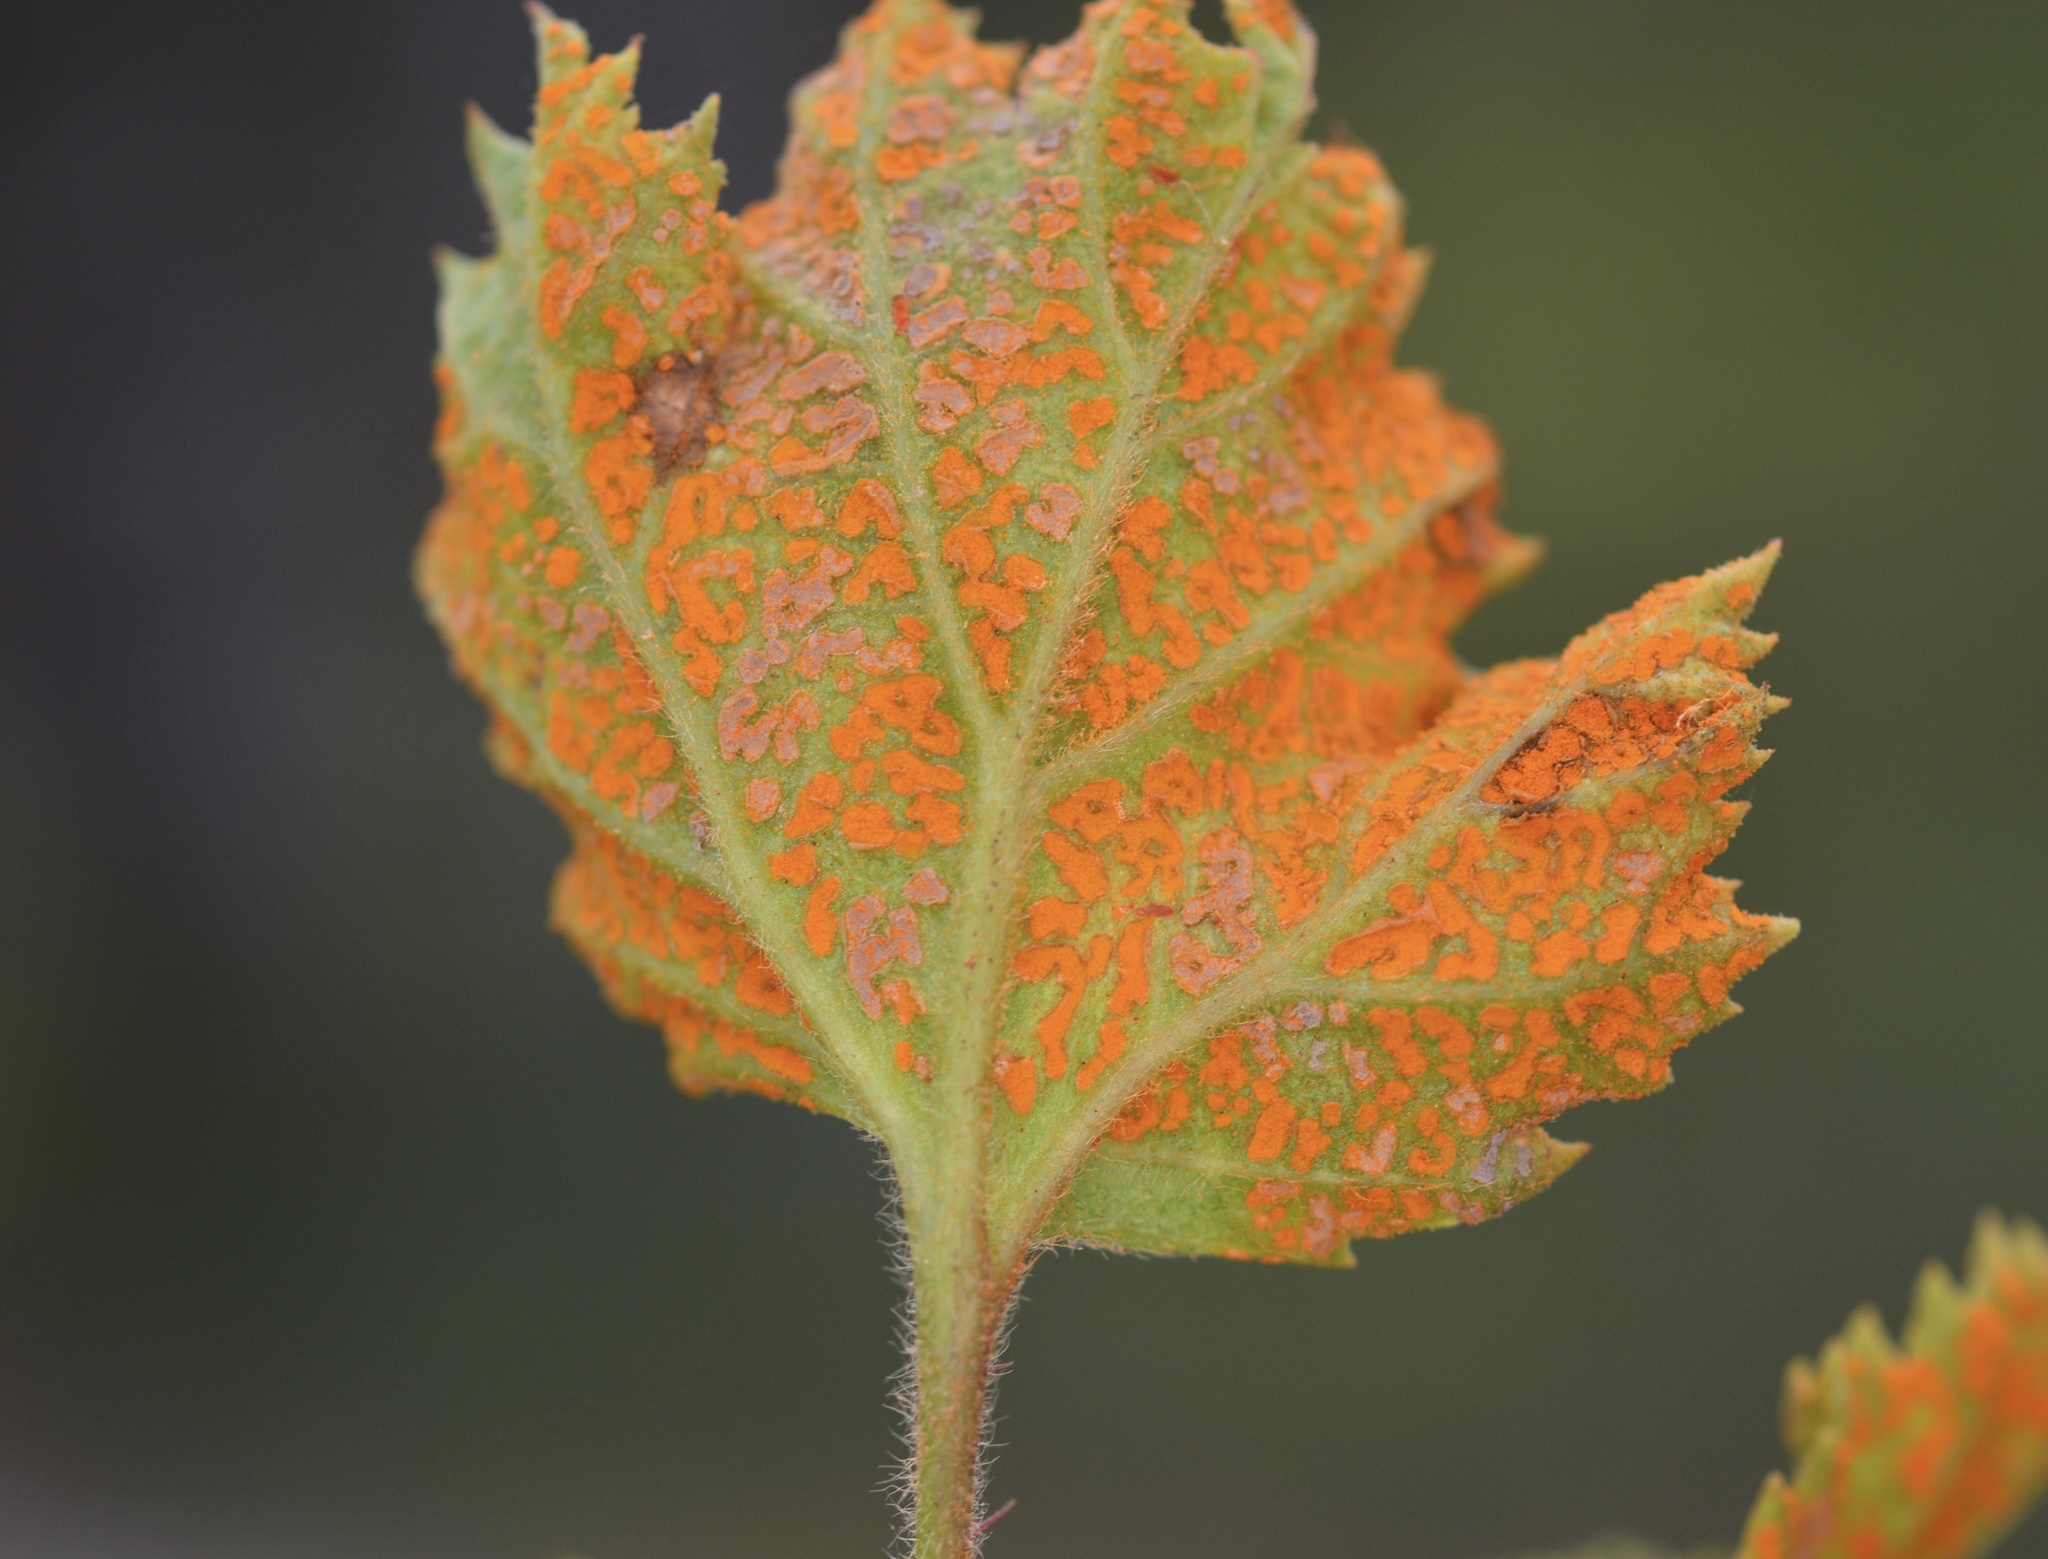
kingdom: Fungi
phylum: Basidiomycota
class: Pucciniomycetes
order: Pucciniales
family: Phragmidiaceae
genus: Arthuriomyces
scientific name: Arthuriomyces peckianus
